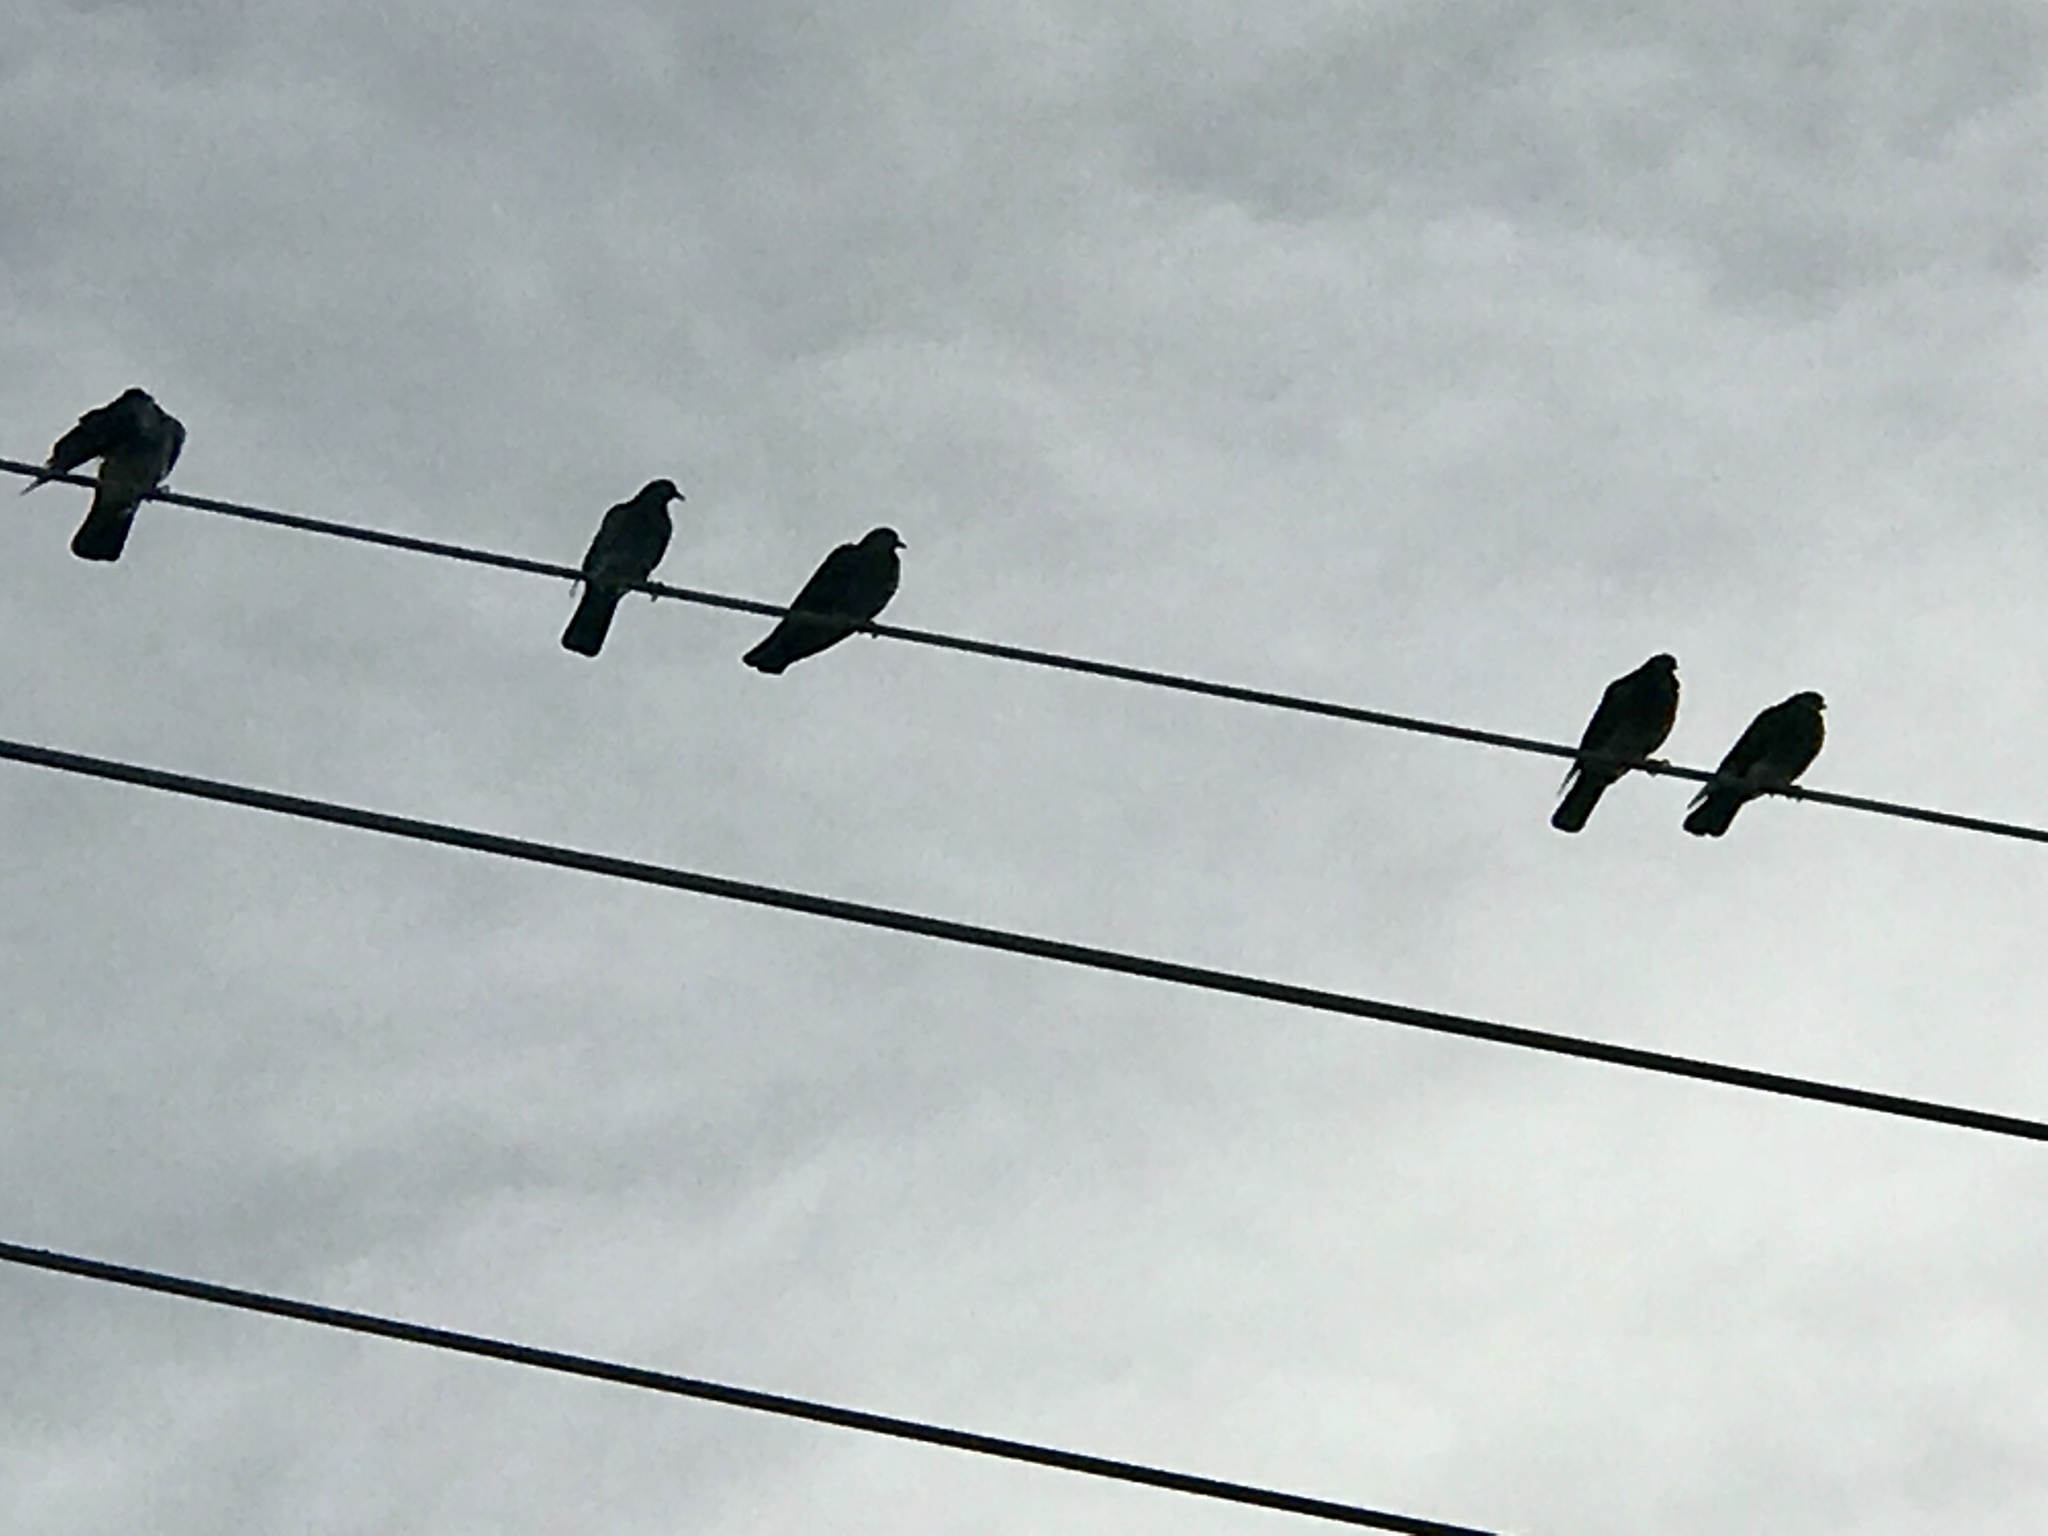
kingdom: Animalia
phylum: Chordata
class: Aves
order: Columbiformes
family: Columbidae
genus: Columba
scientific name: Columba livia
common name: Rock pigeon
